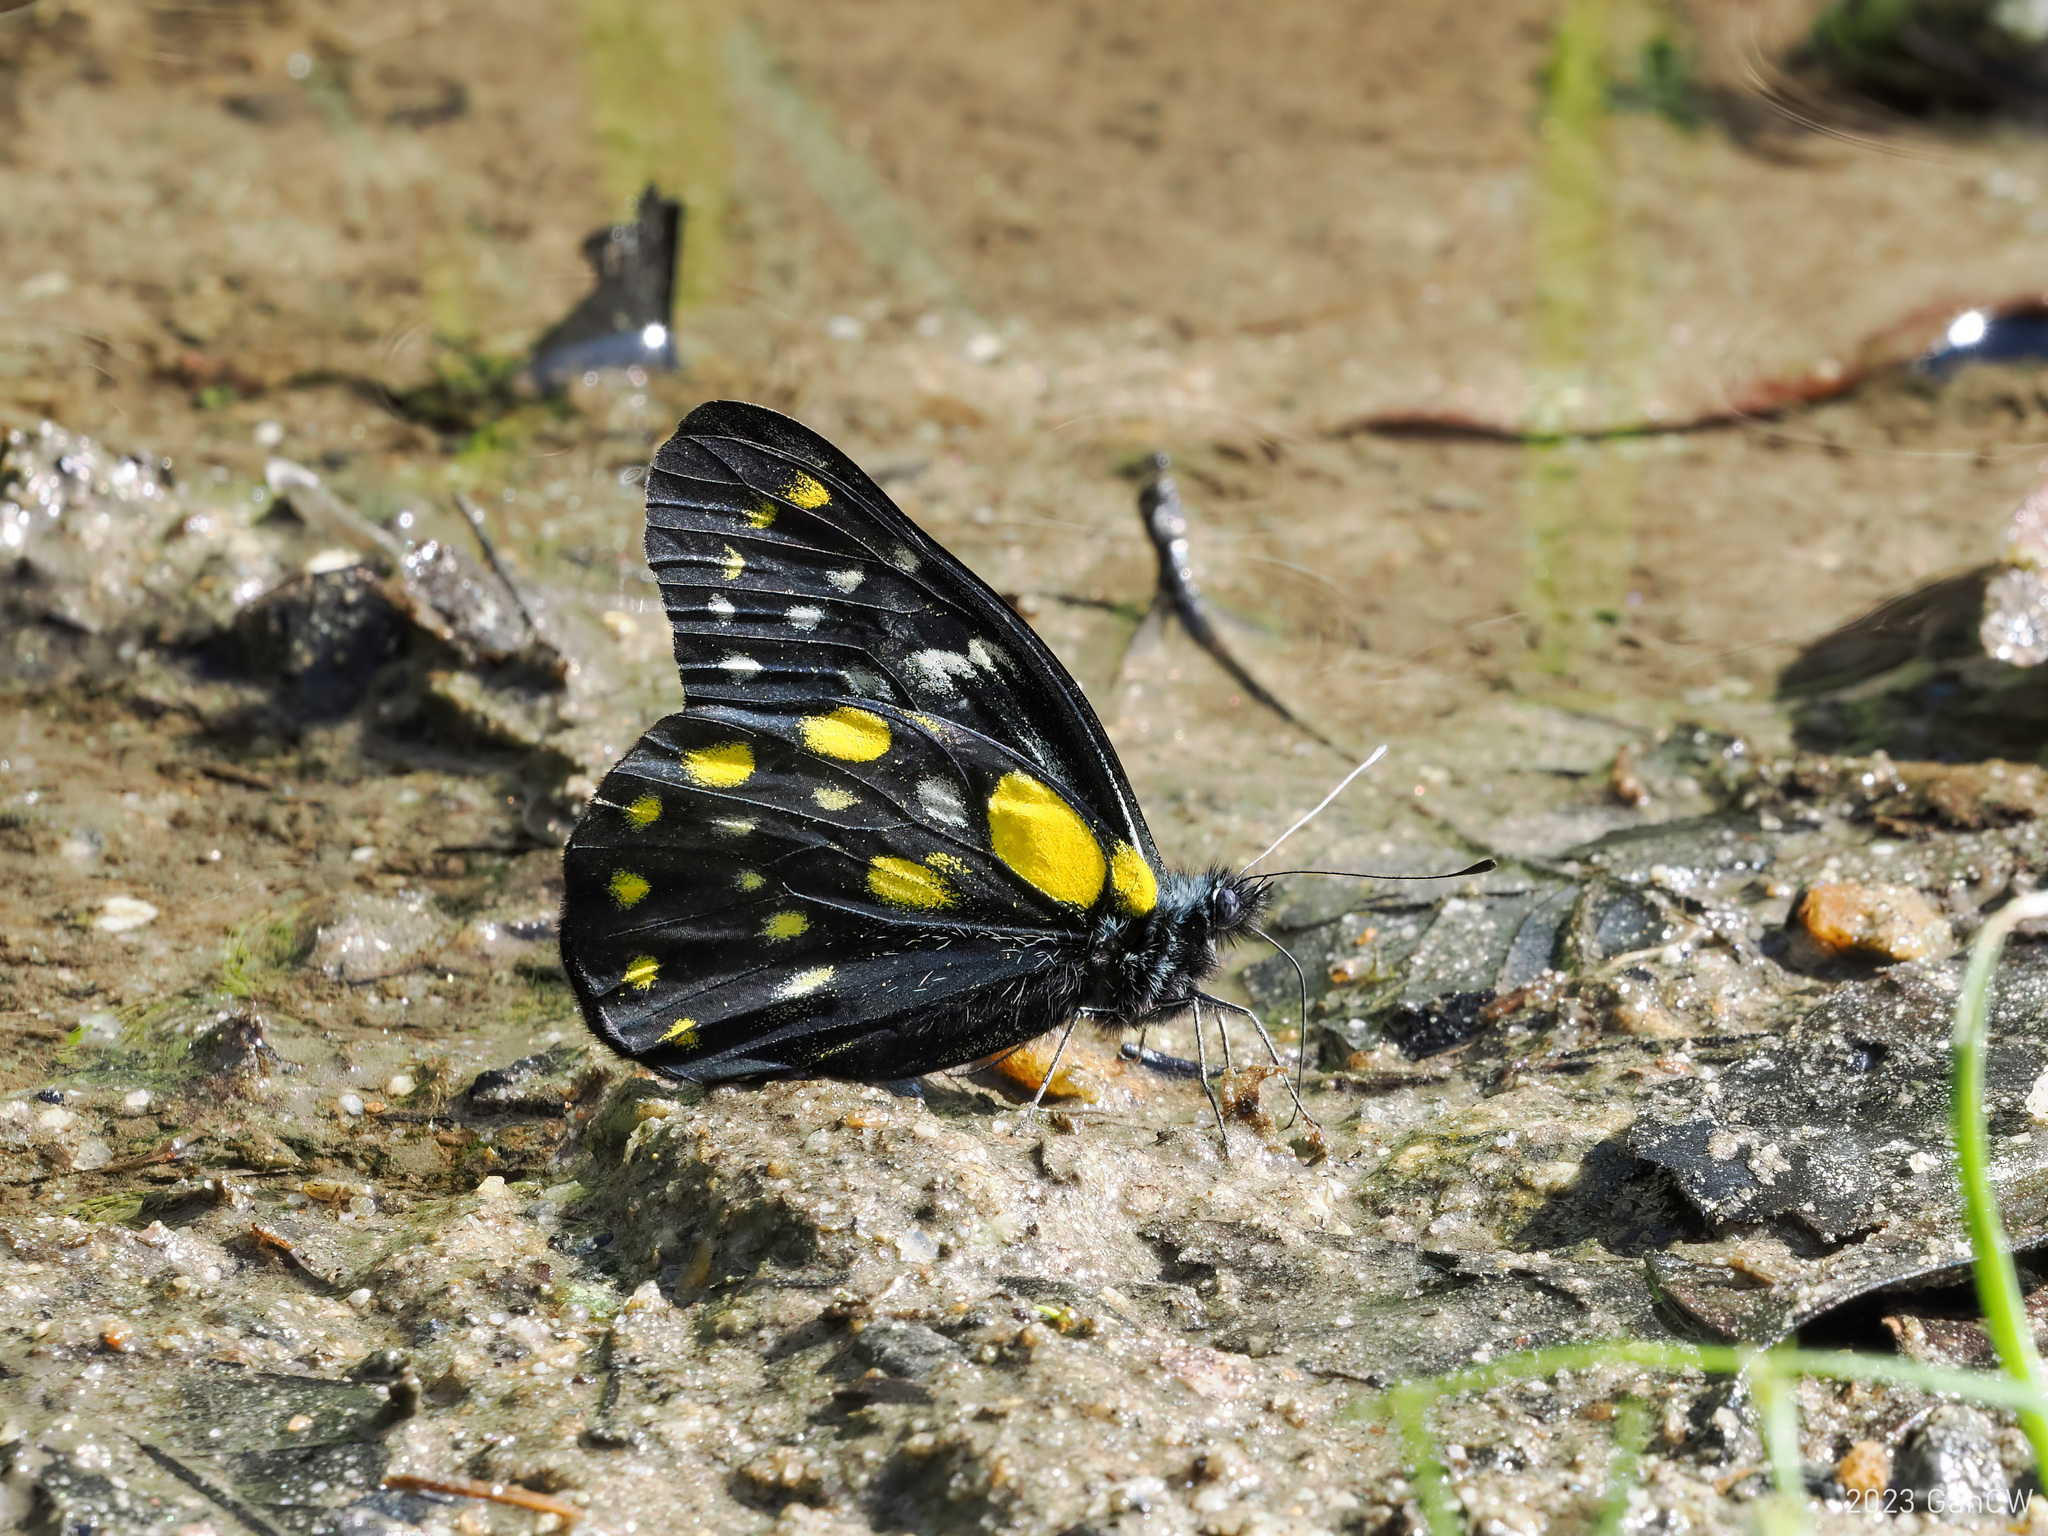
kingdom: Animalia
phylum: Arthropoda
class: Insecta
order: Lepidoptera
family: Pieridae
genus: Delias
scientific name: Delias belladonna
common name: Hill jezebel
